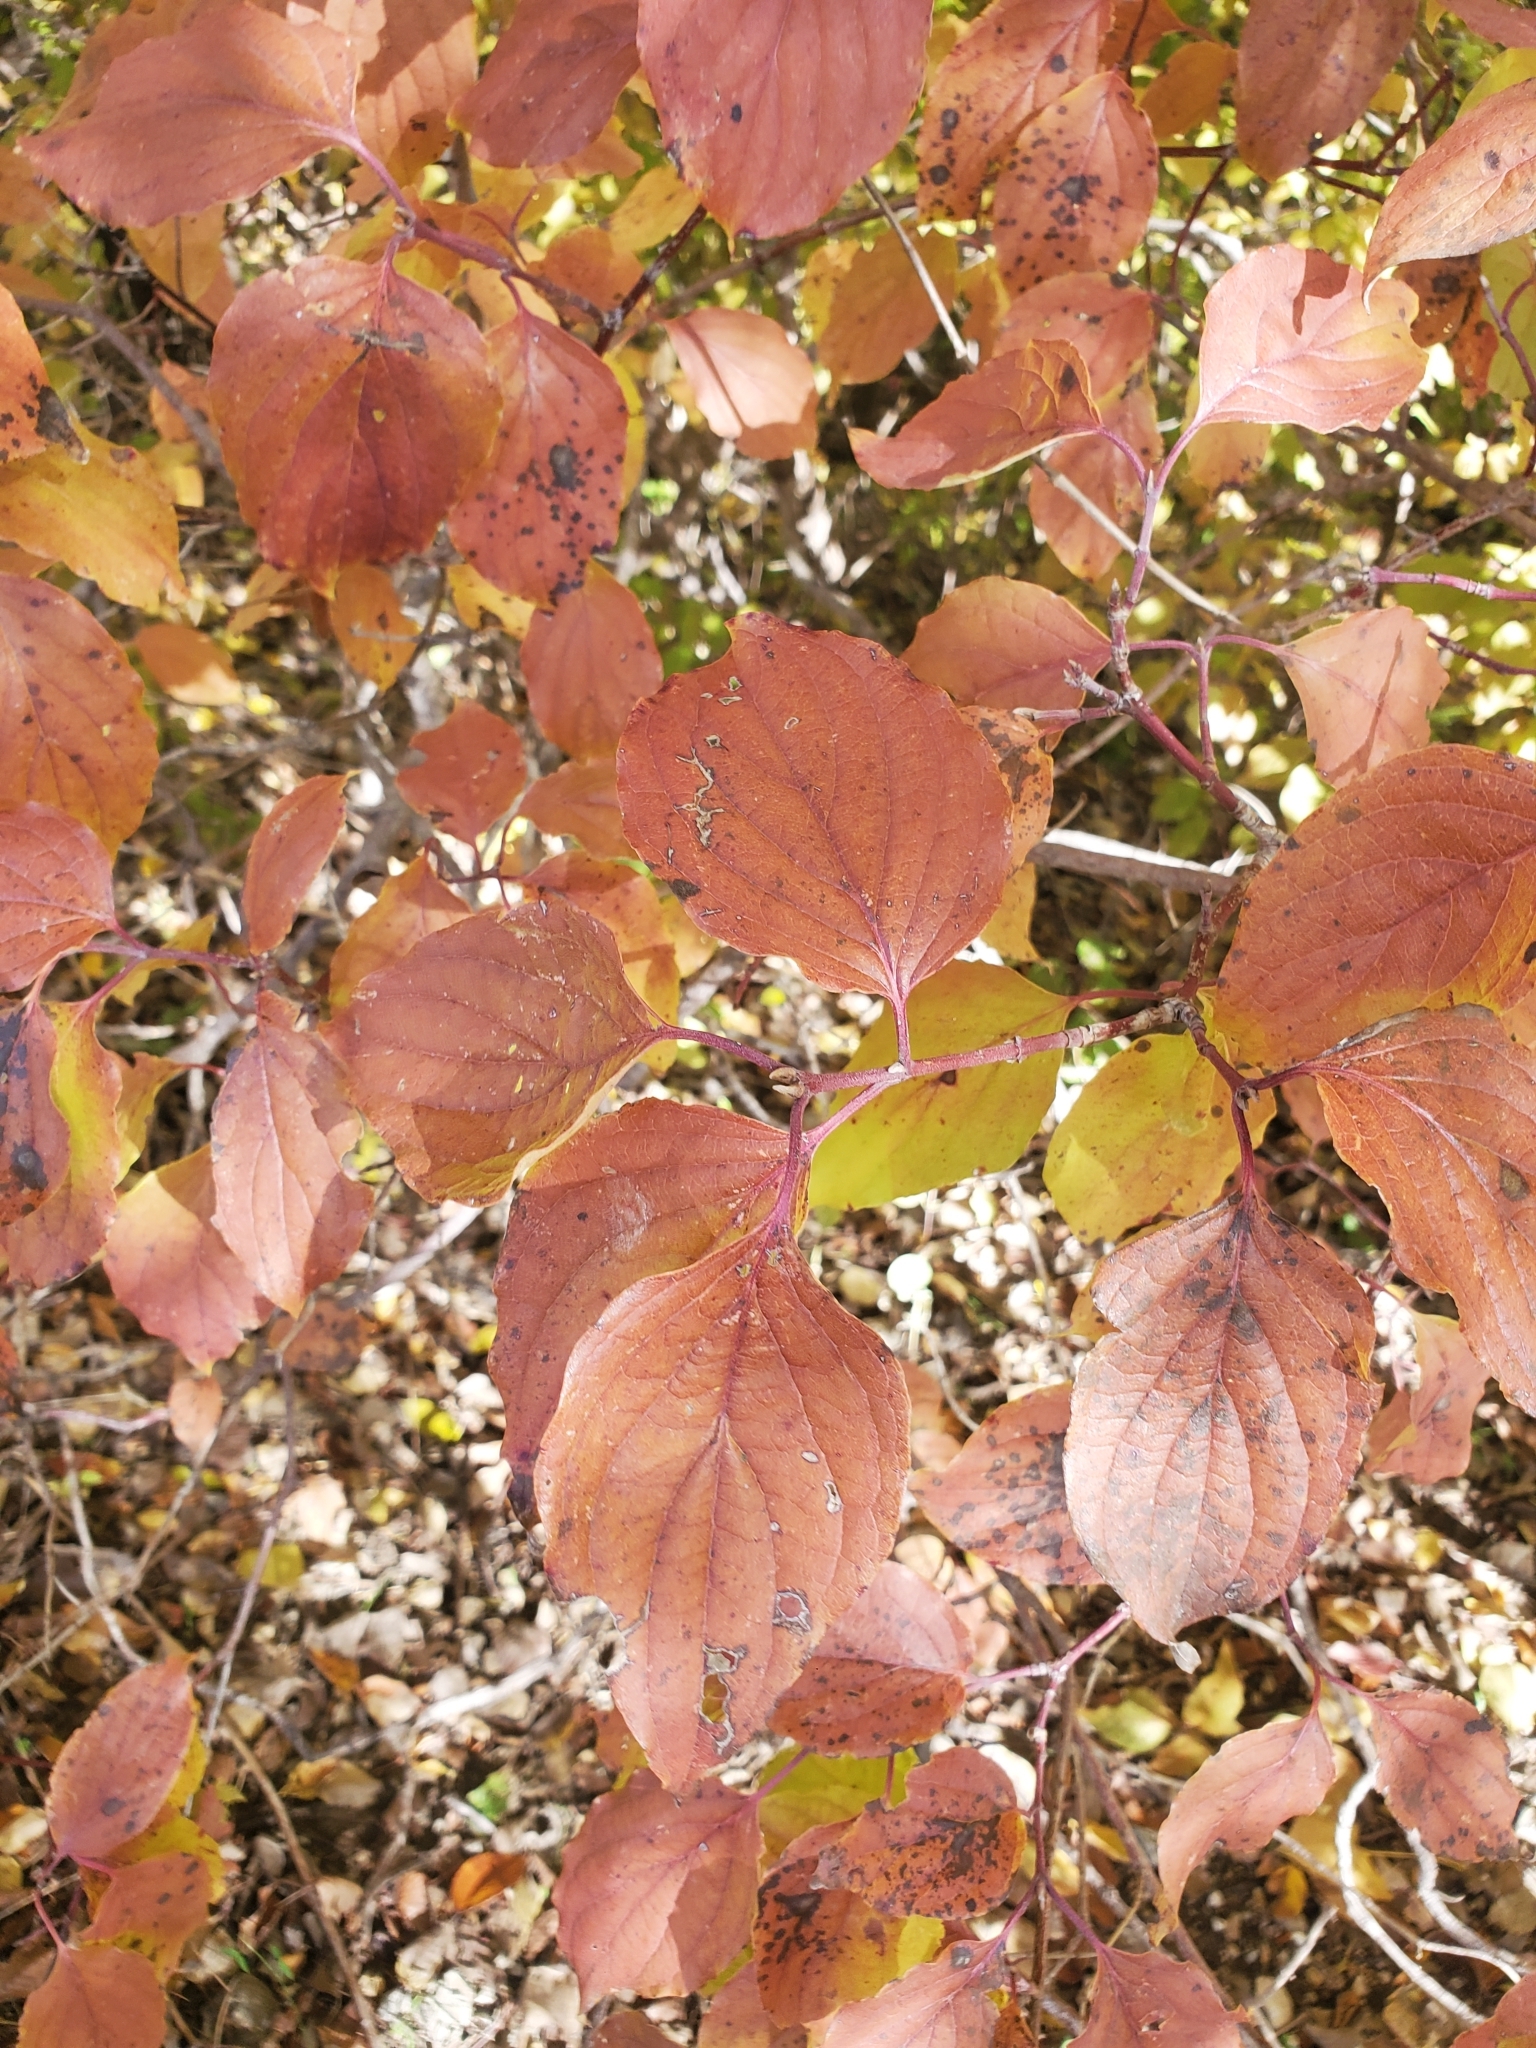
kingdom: Plantae
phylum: Tracheophyta
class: Magnoliopsida
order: Cornales
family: Cornaceae
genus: Cornus
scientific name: Cornus drummondii
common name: Rough-leaf dogwood
